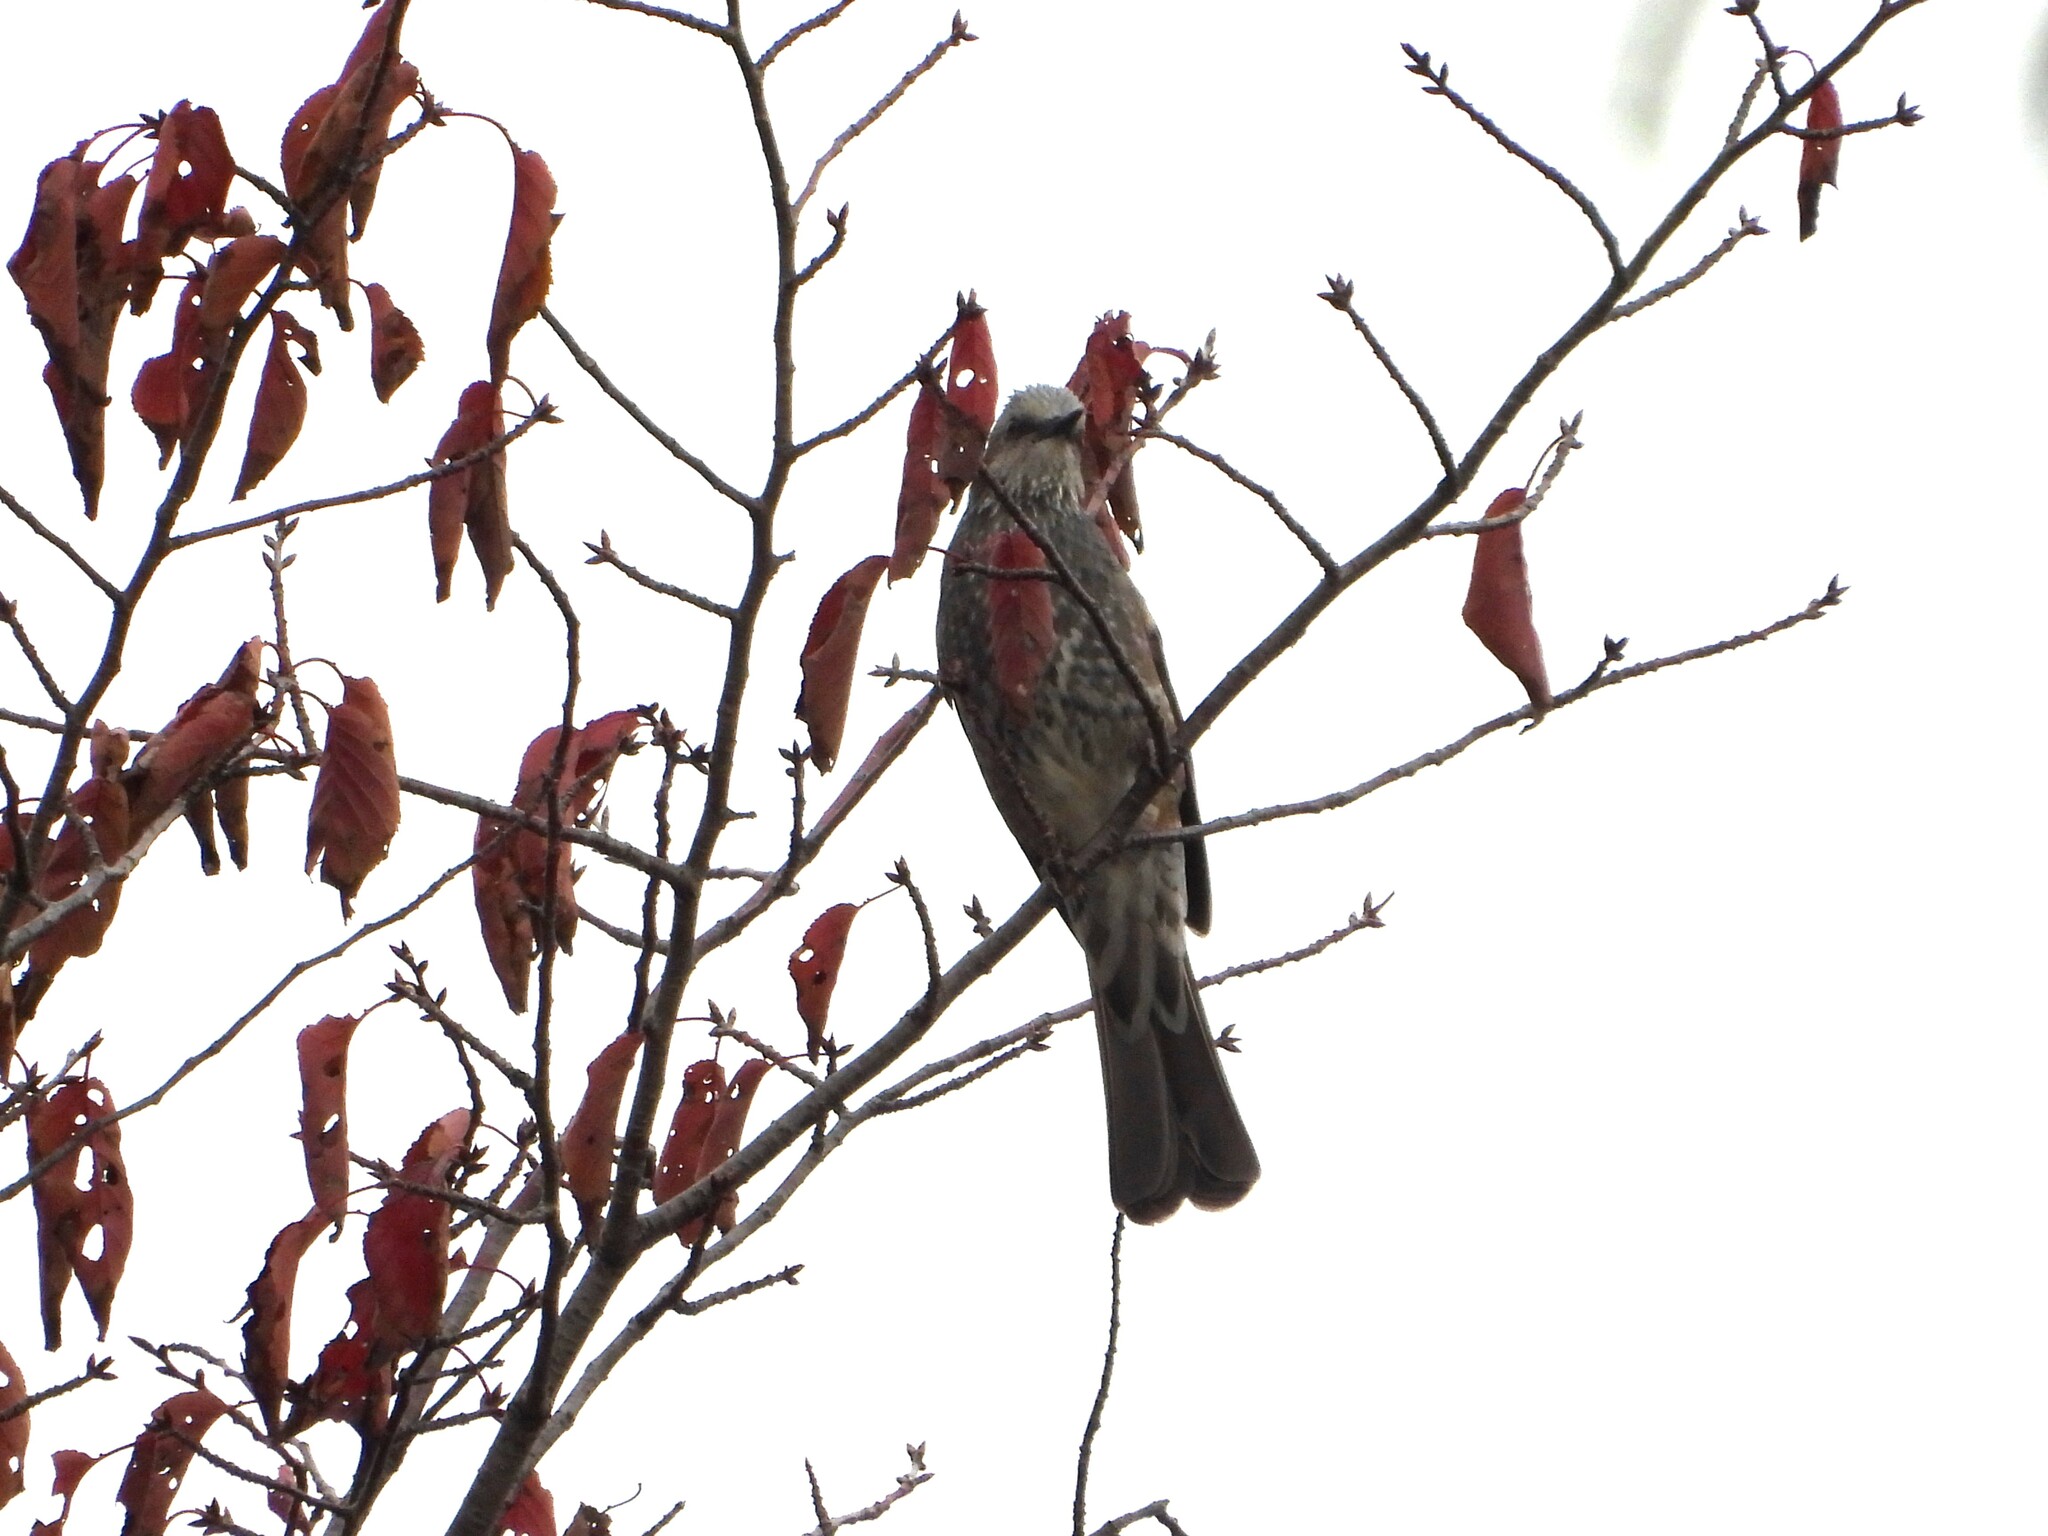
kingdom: Animalia
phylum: Chordata
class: Aves
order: Passeriformes
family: Pycnonotidae
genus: Hypsipetes
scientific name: Hypsipetes amaurotis
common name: Brown-eared bulbul
